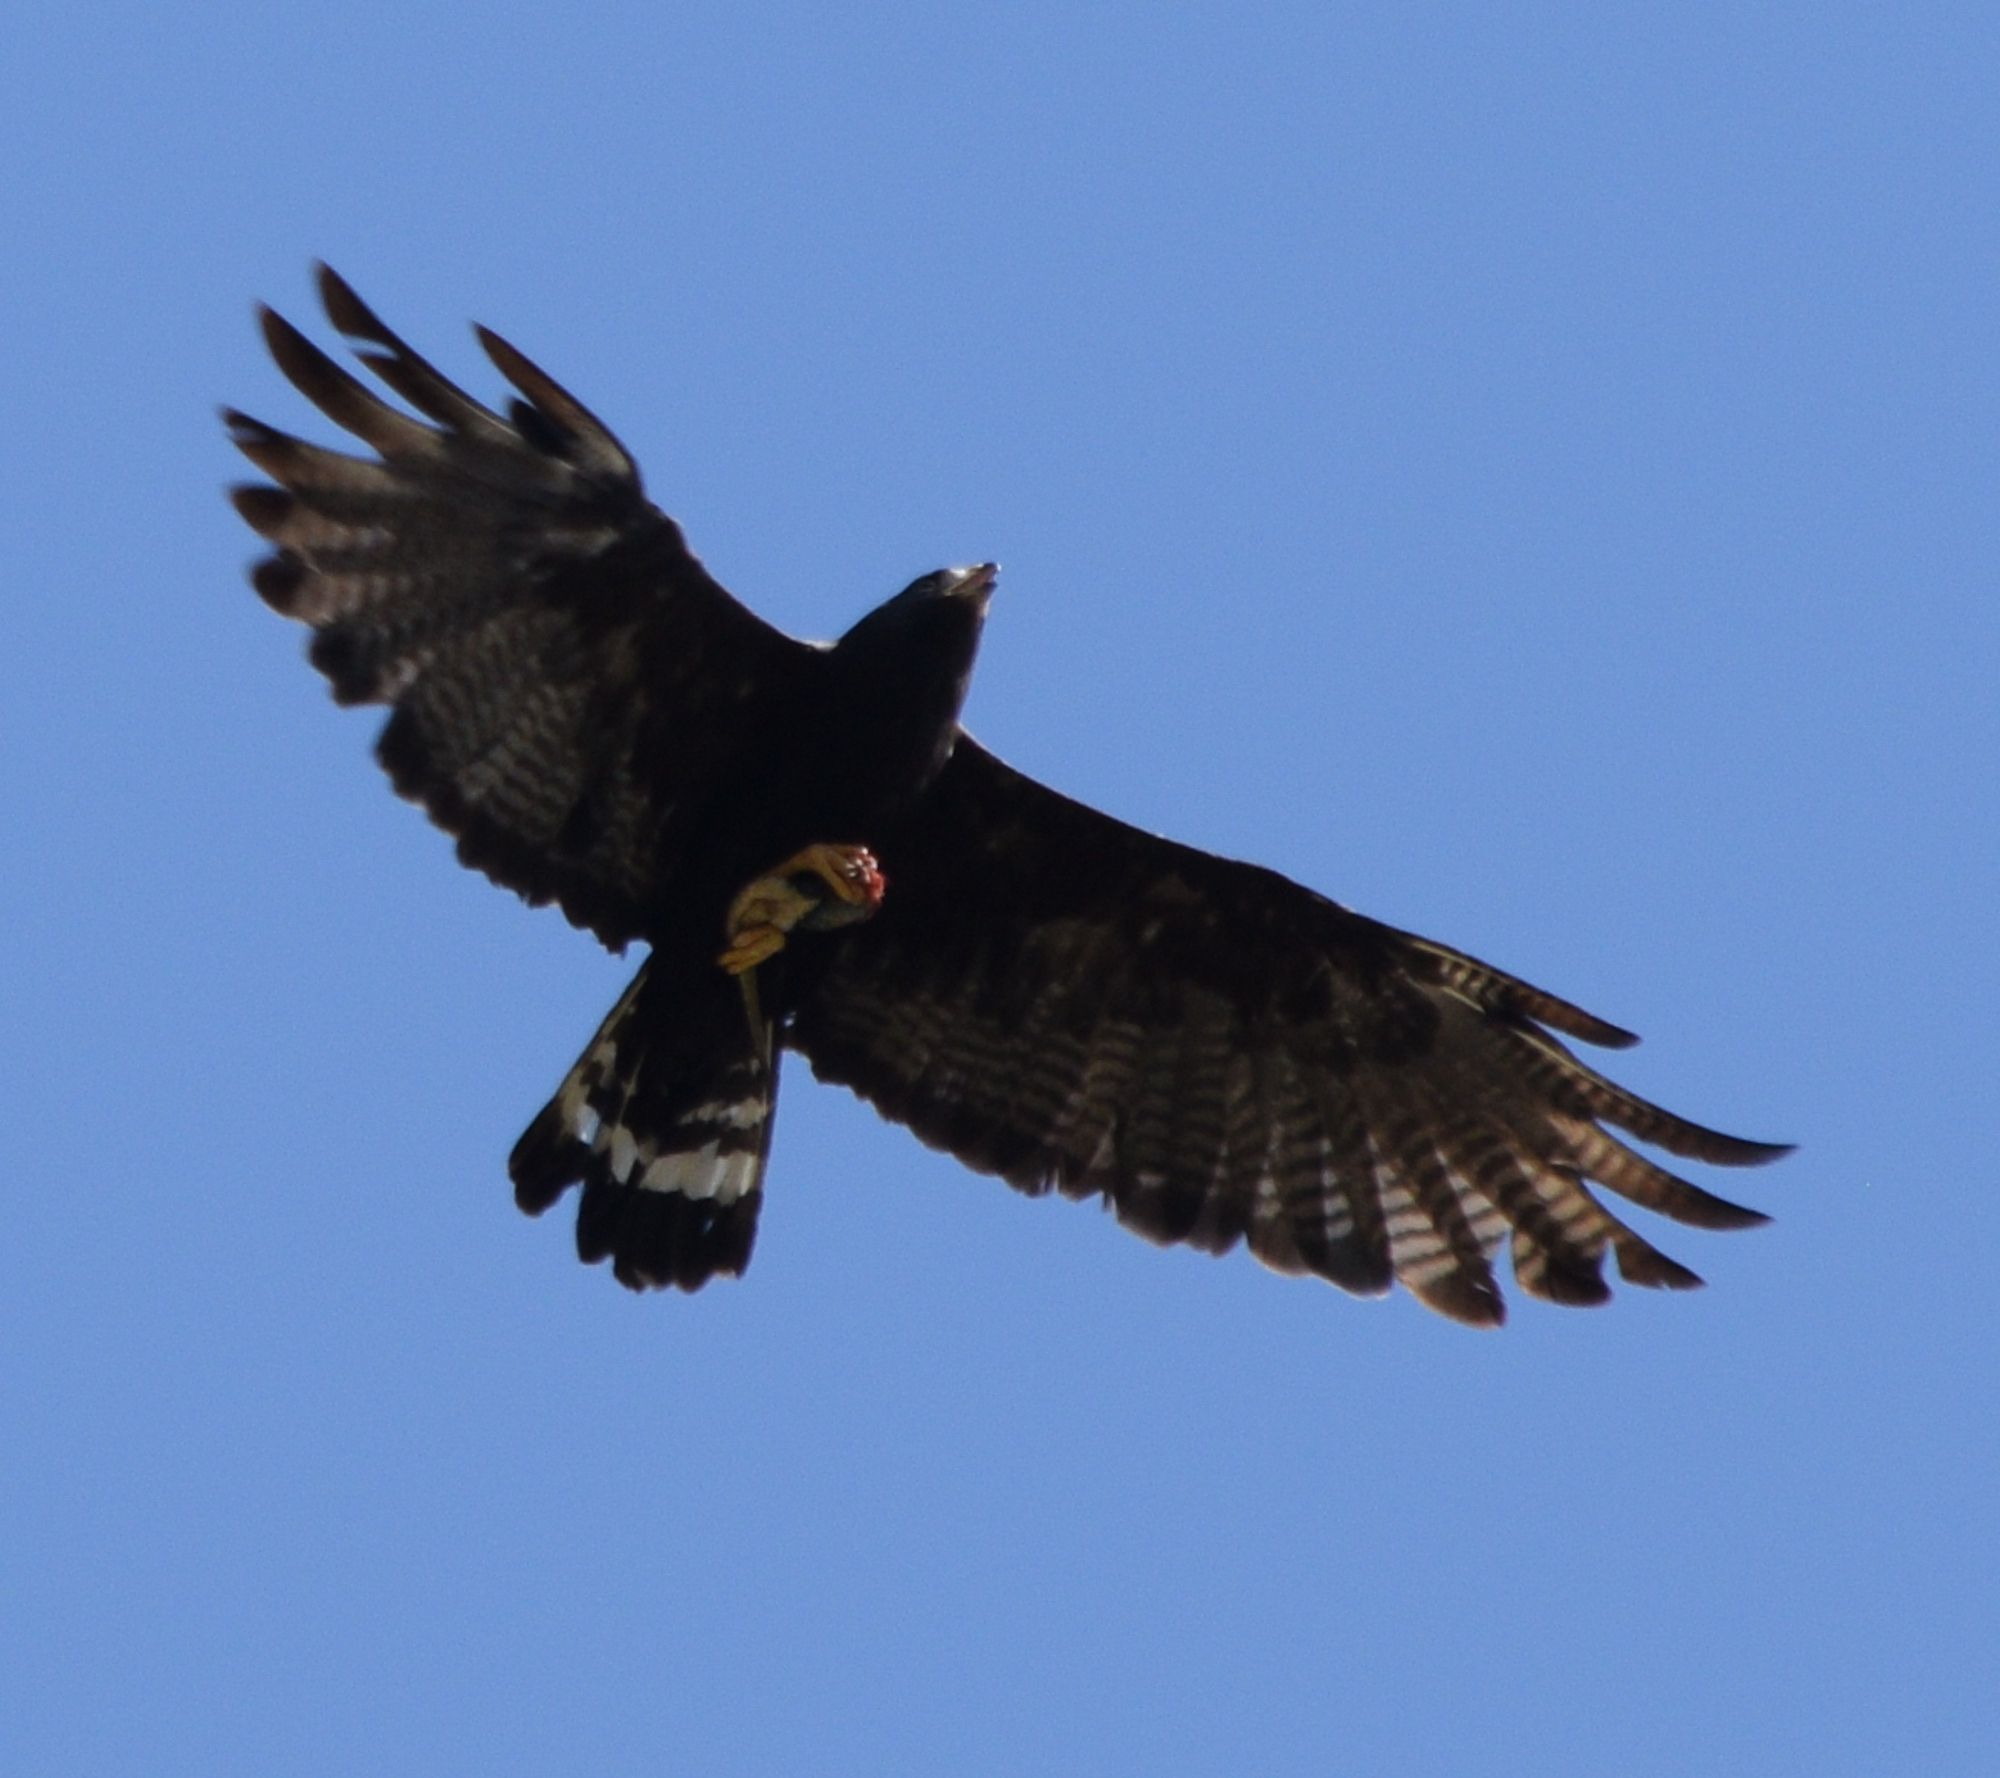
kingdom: Animalia
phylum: Chordata
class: Aves
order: Accipitriformes
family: Accipitridae
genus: Buteo
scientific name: Buteo albonotatus
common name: Zone-tailed hawk
